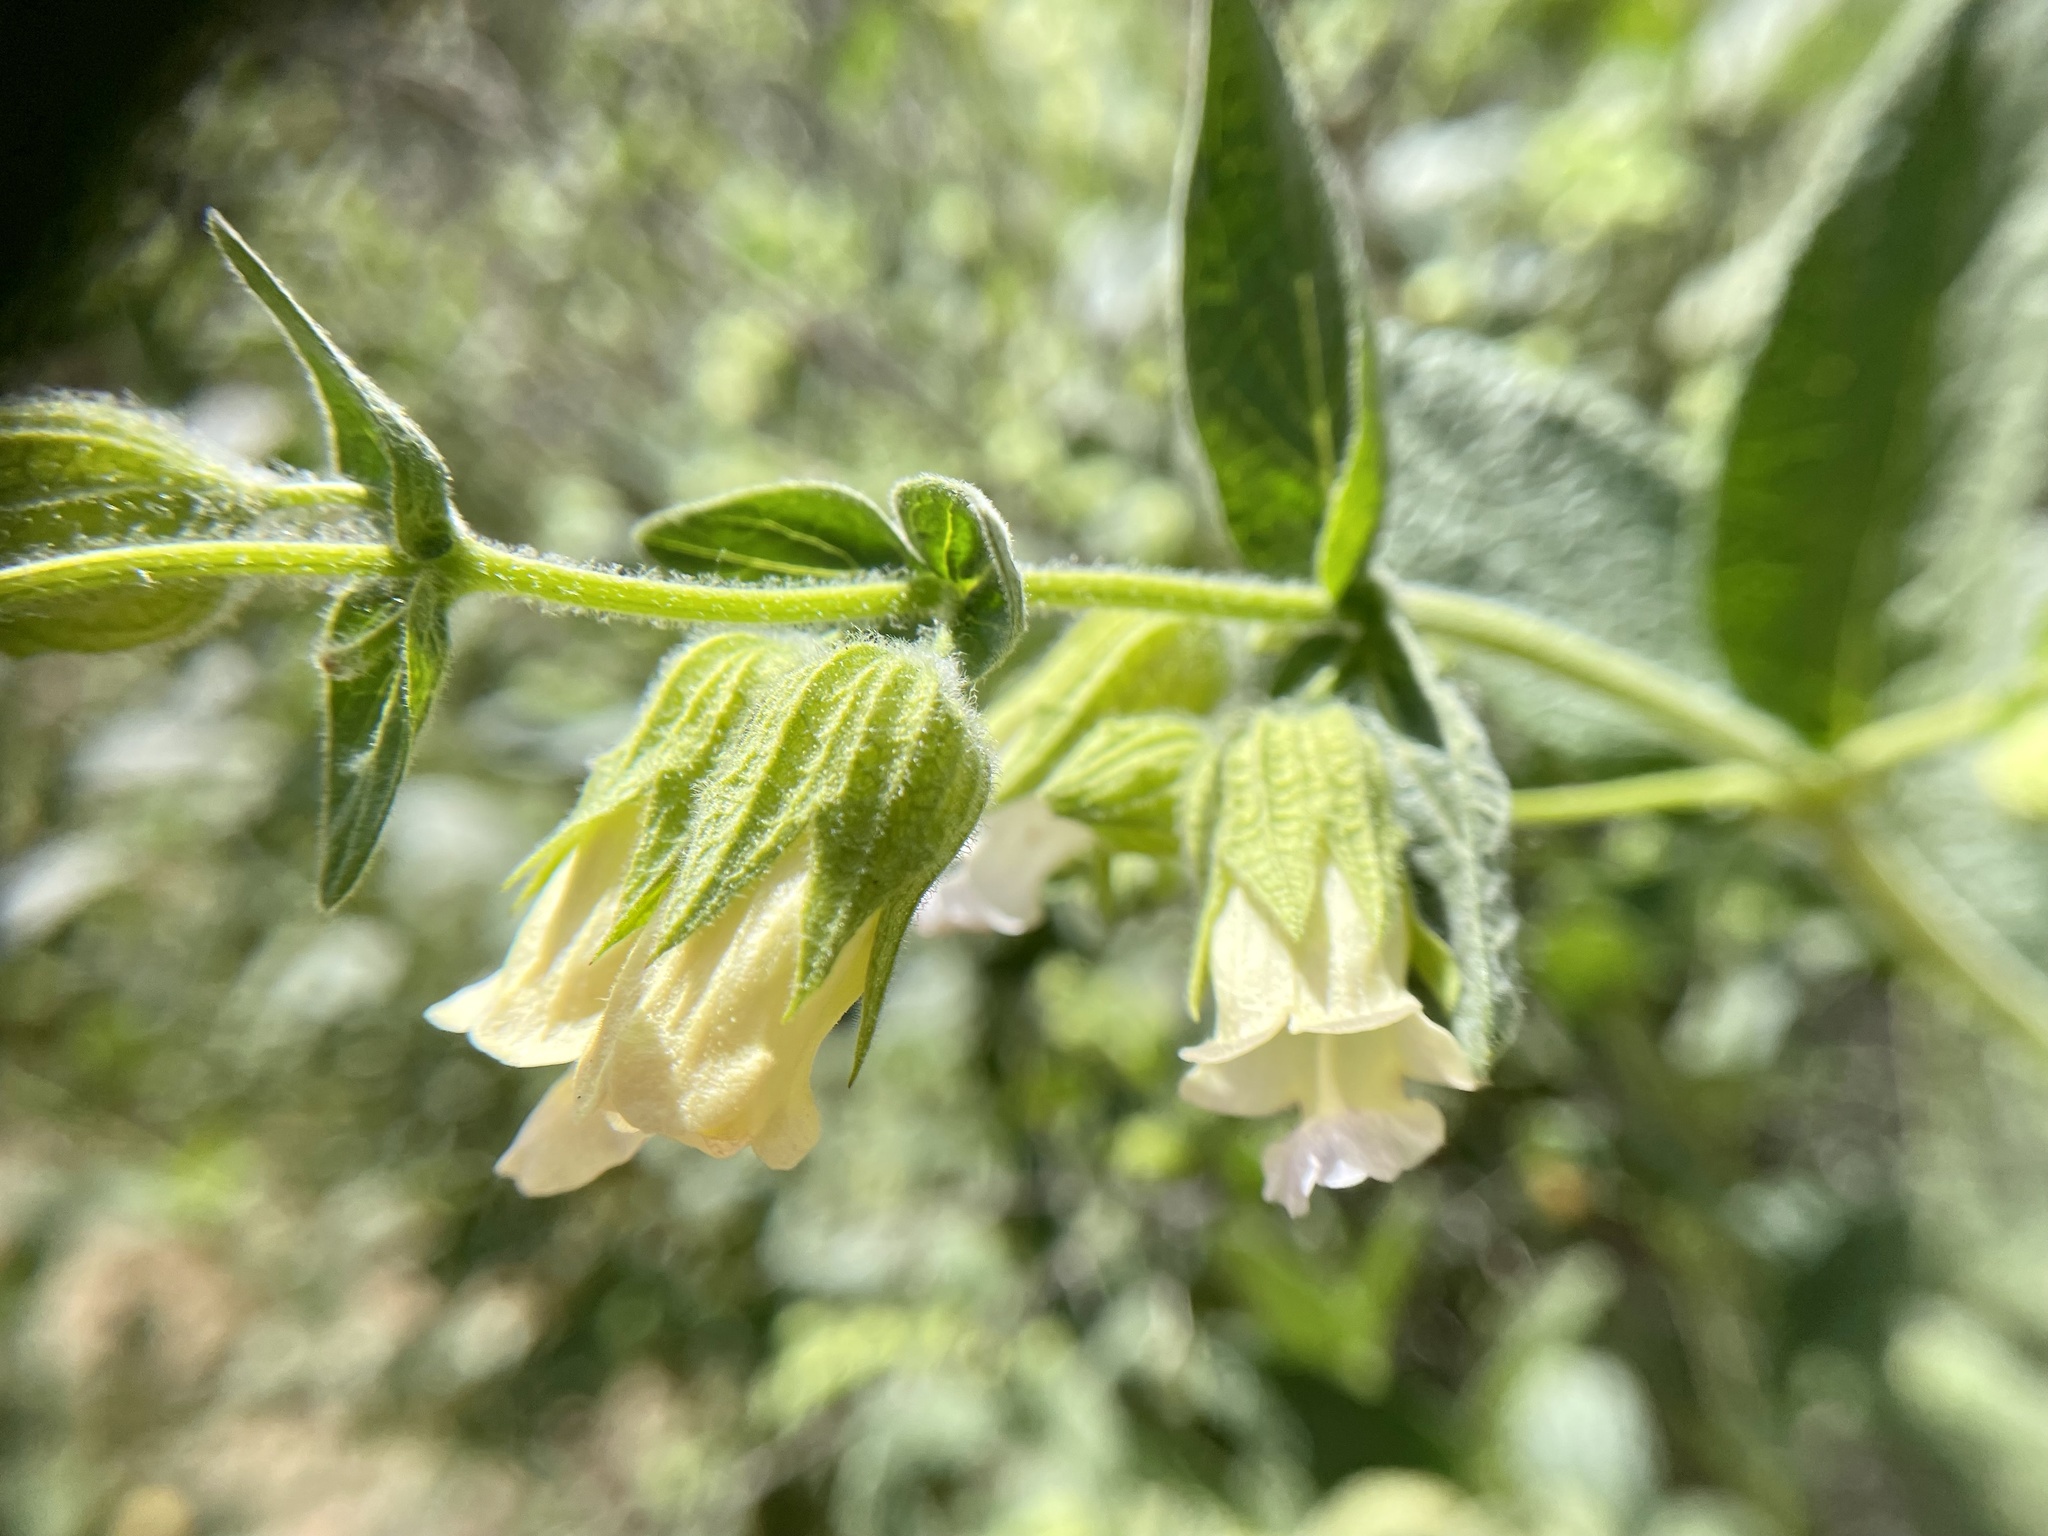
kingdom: Plantae
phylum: Tracheophyta
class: Magnoliopsida
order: Lamiales
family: Lamiaceae
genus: Lepechinia
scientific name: Lepechinia calycina
